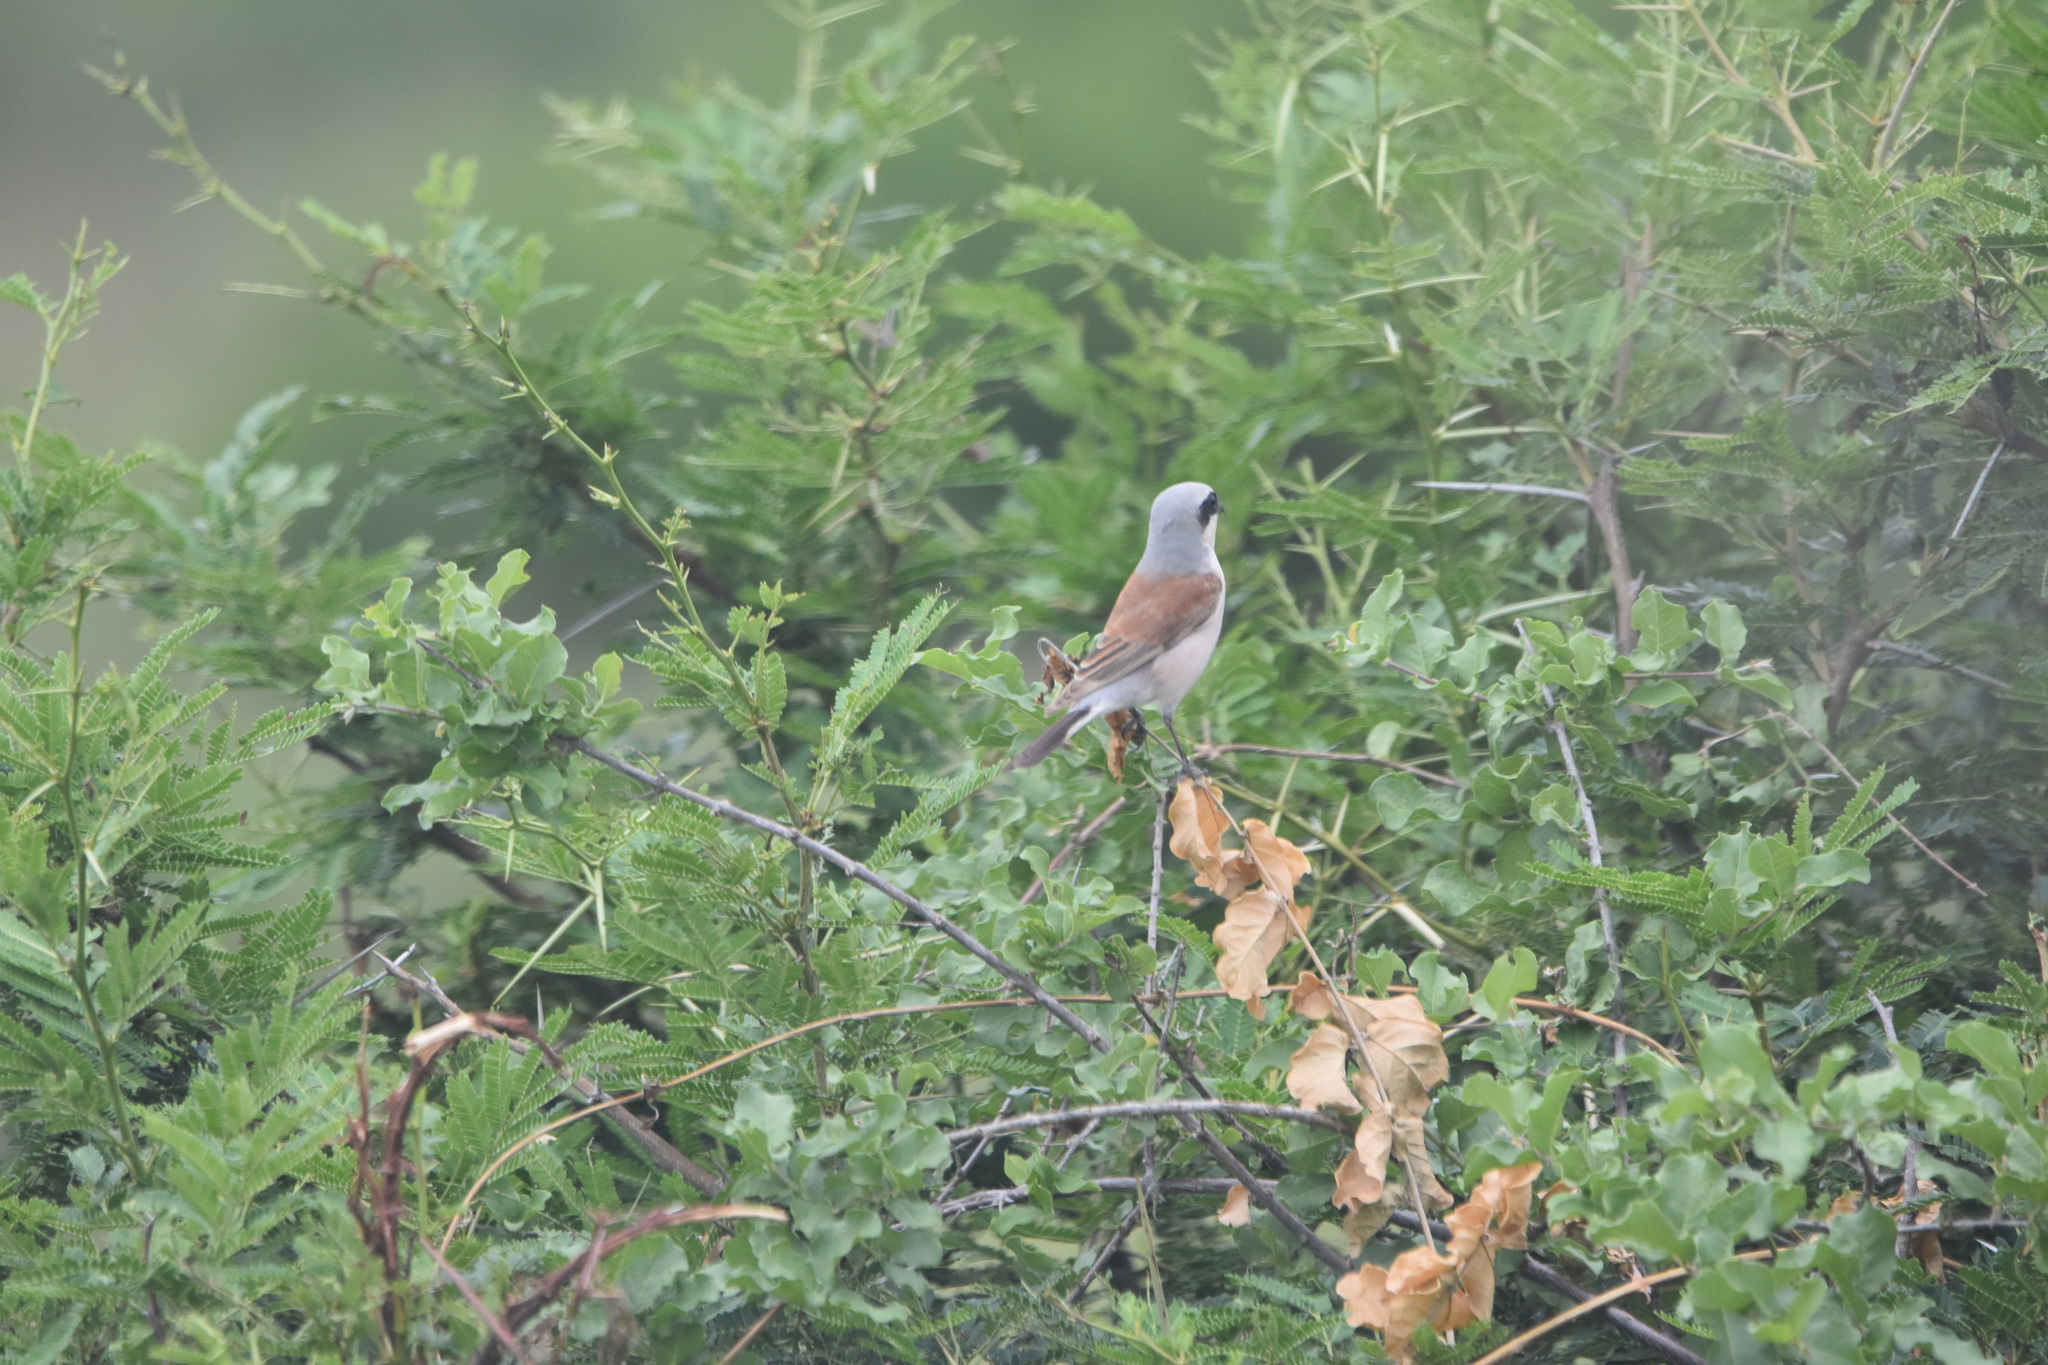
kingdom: Animalia
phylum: Chordata
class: Aves
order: Passeriformes
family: Laniidae
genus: Lanius
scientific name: Lanius collurio
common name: Red-backed shrike
